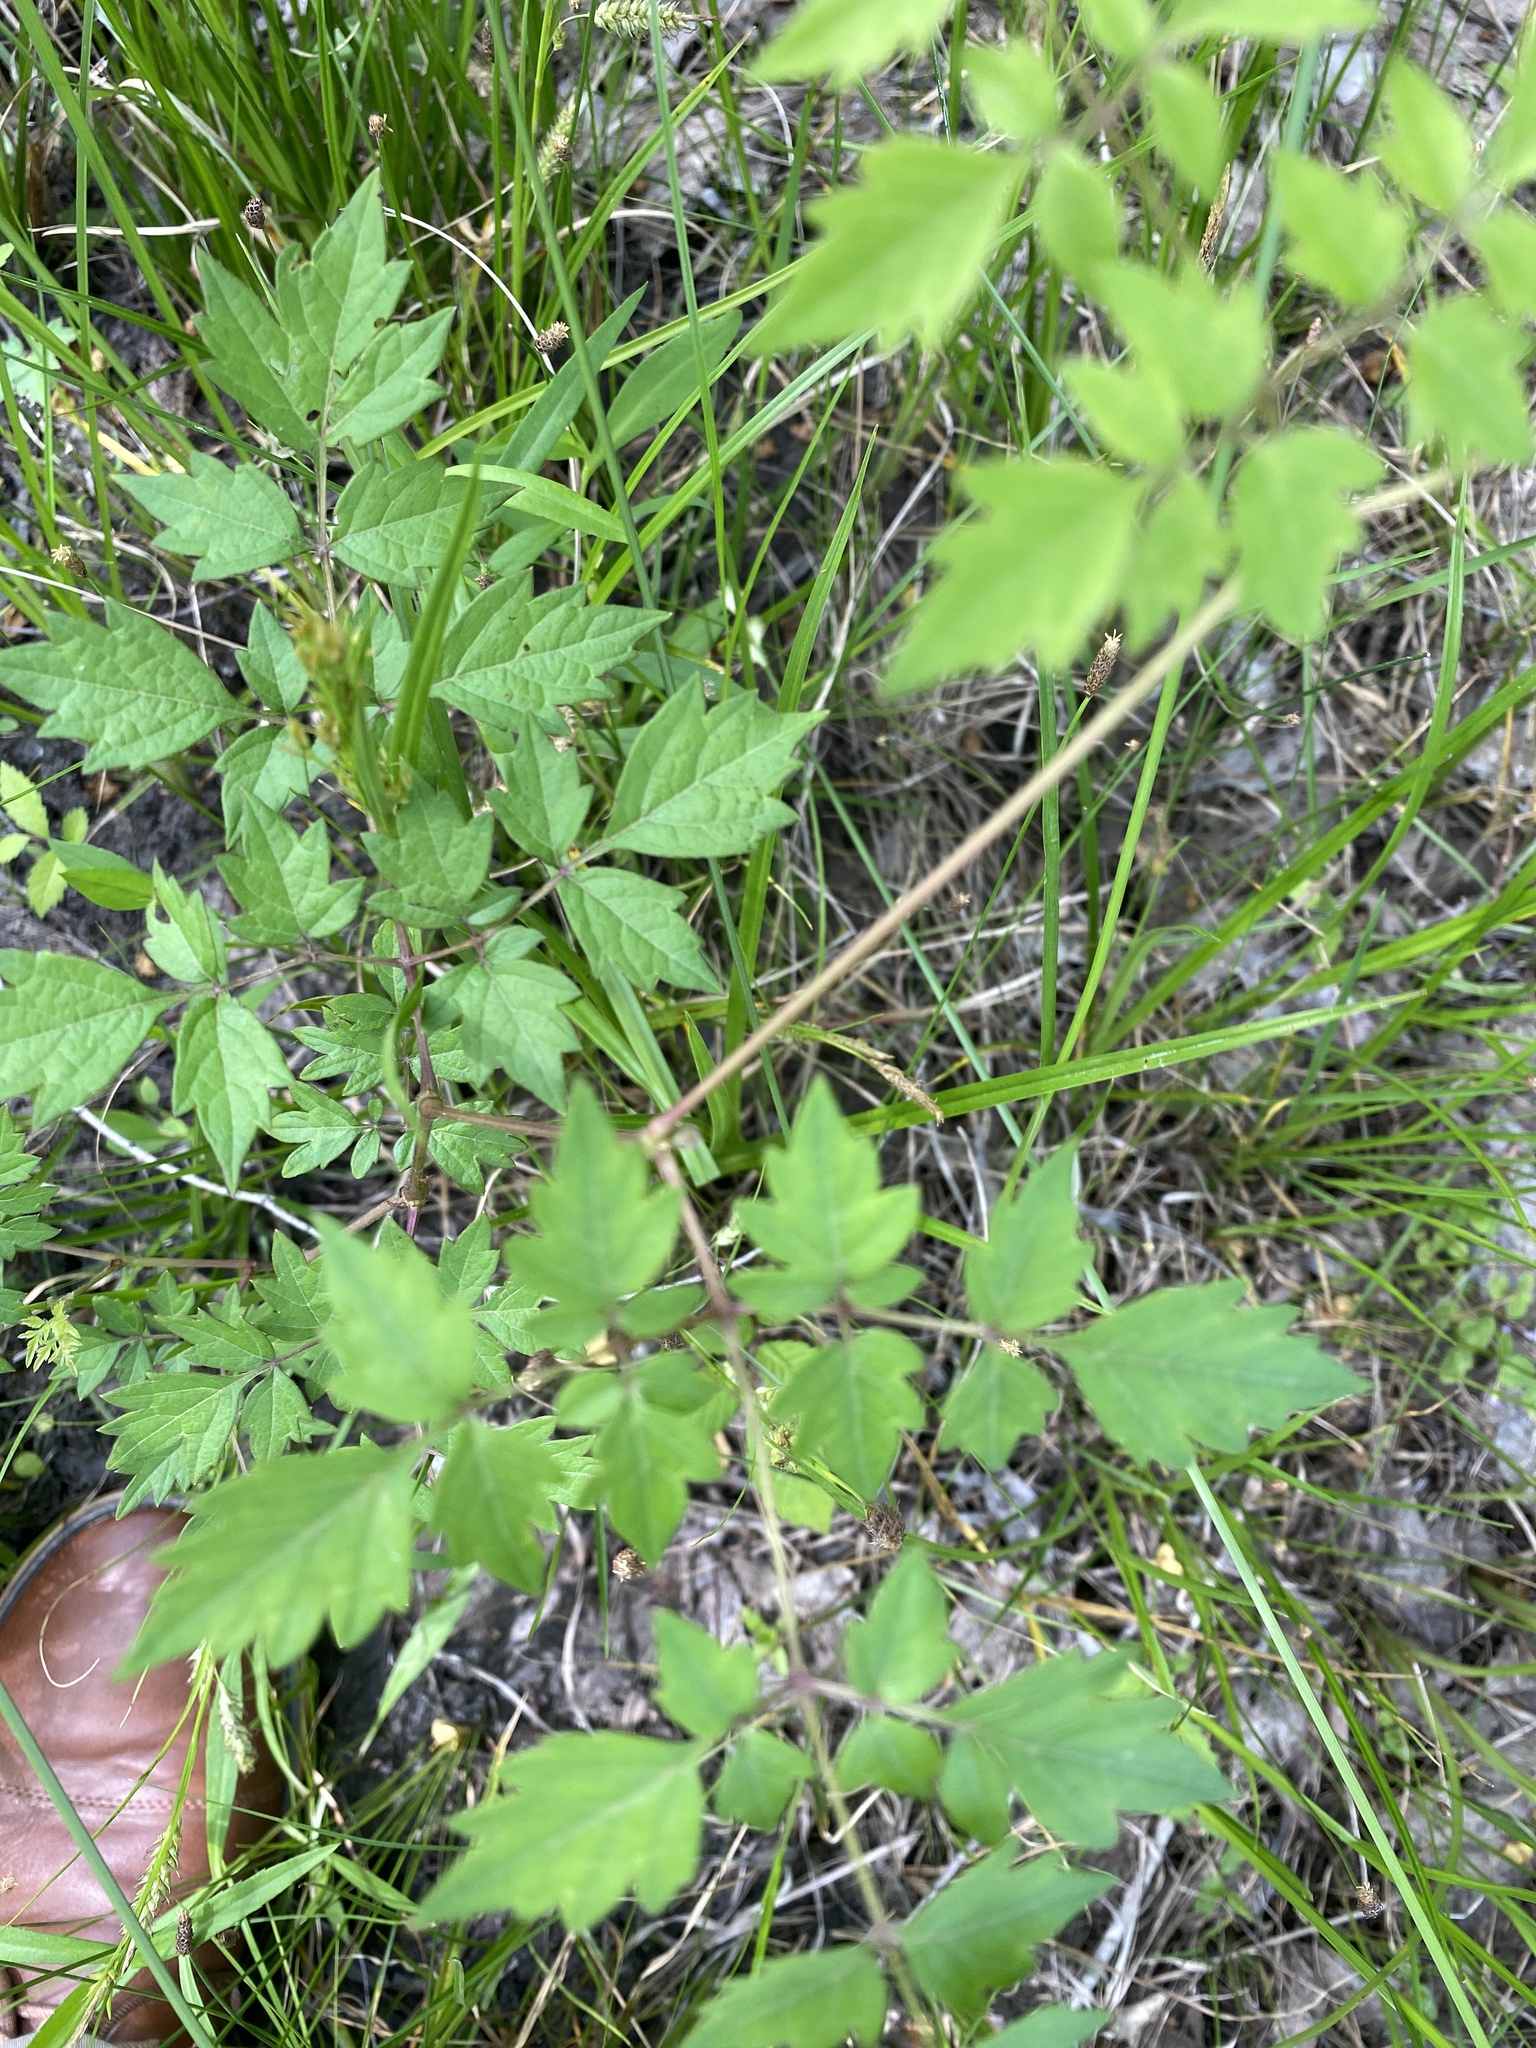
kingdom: Plantae
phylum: Tracheophyta
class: Magnoliopsida
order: Vitales
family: Vitaceae
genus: Nekemias
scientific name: Nekemias arborea
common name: Peppervine
